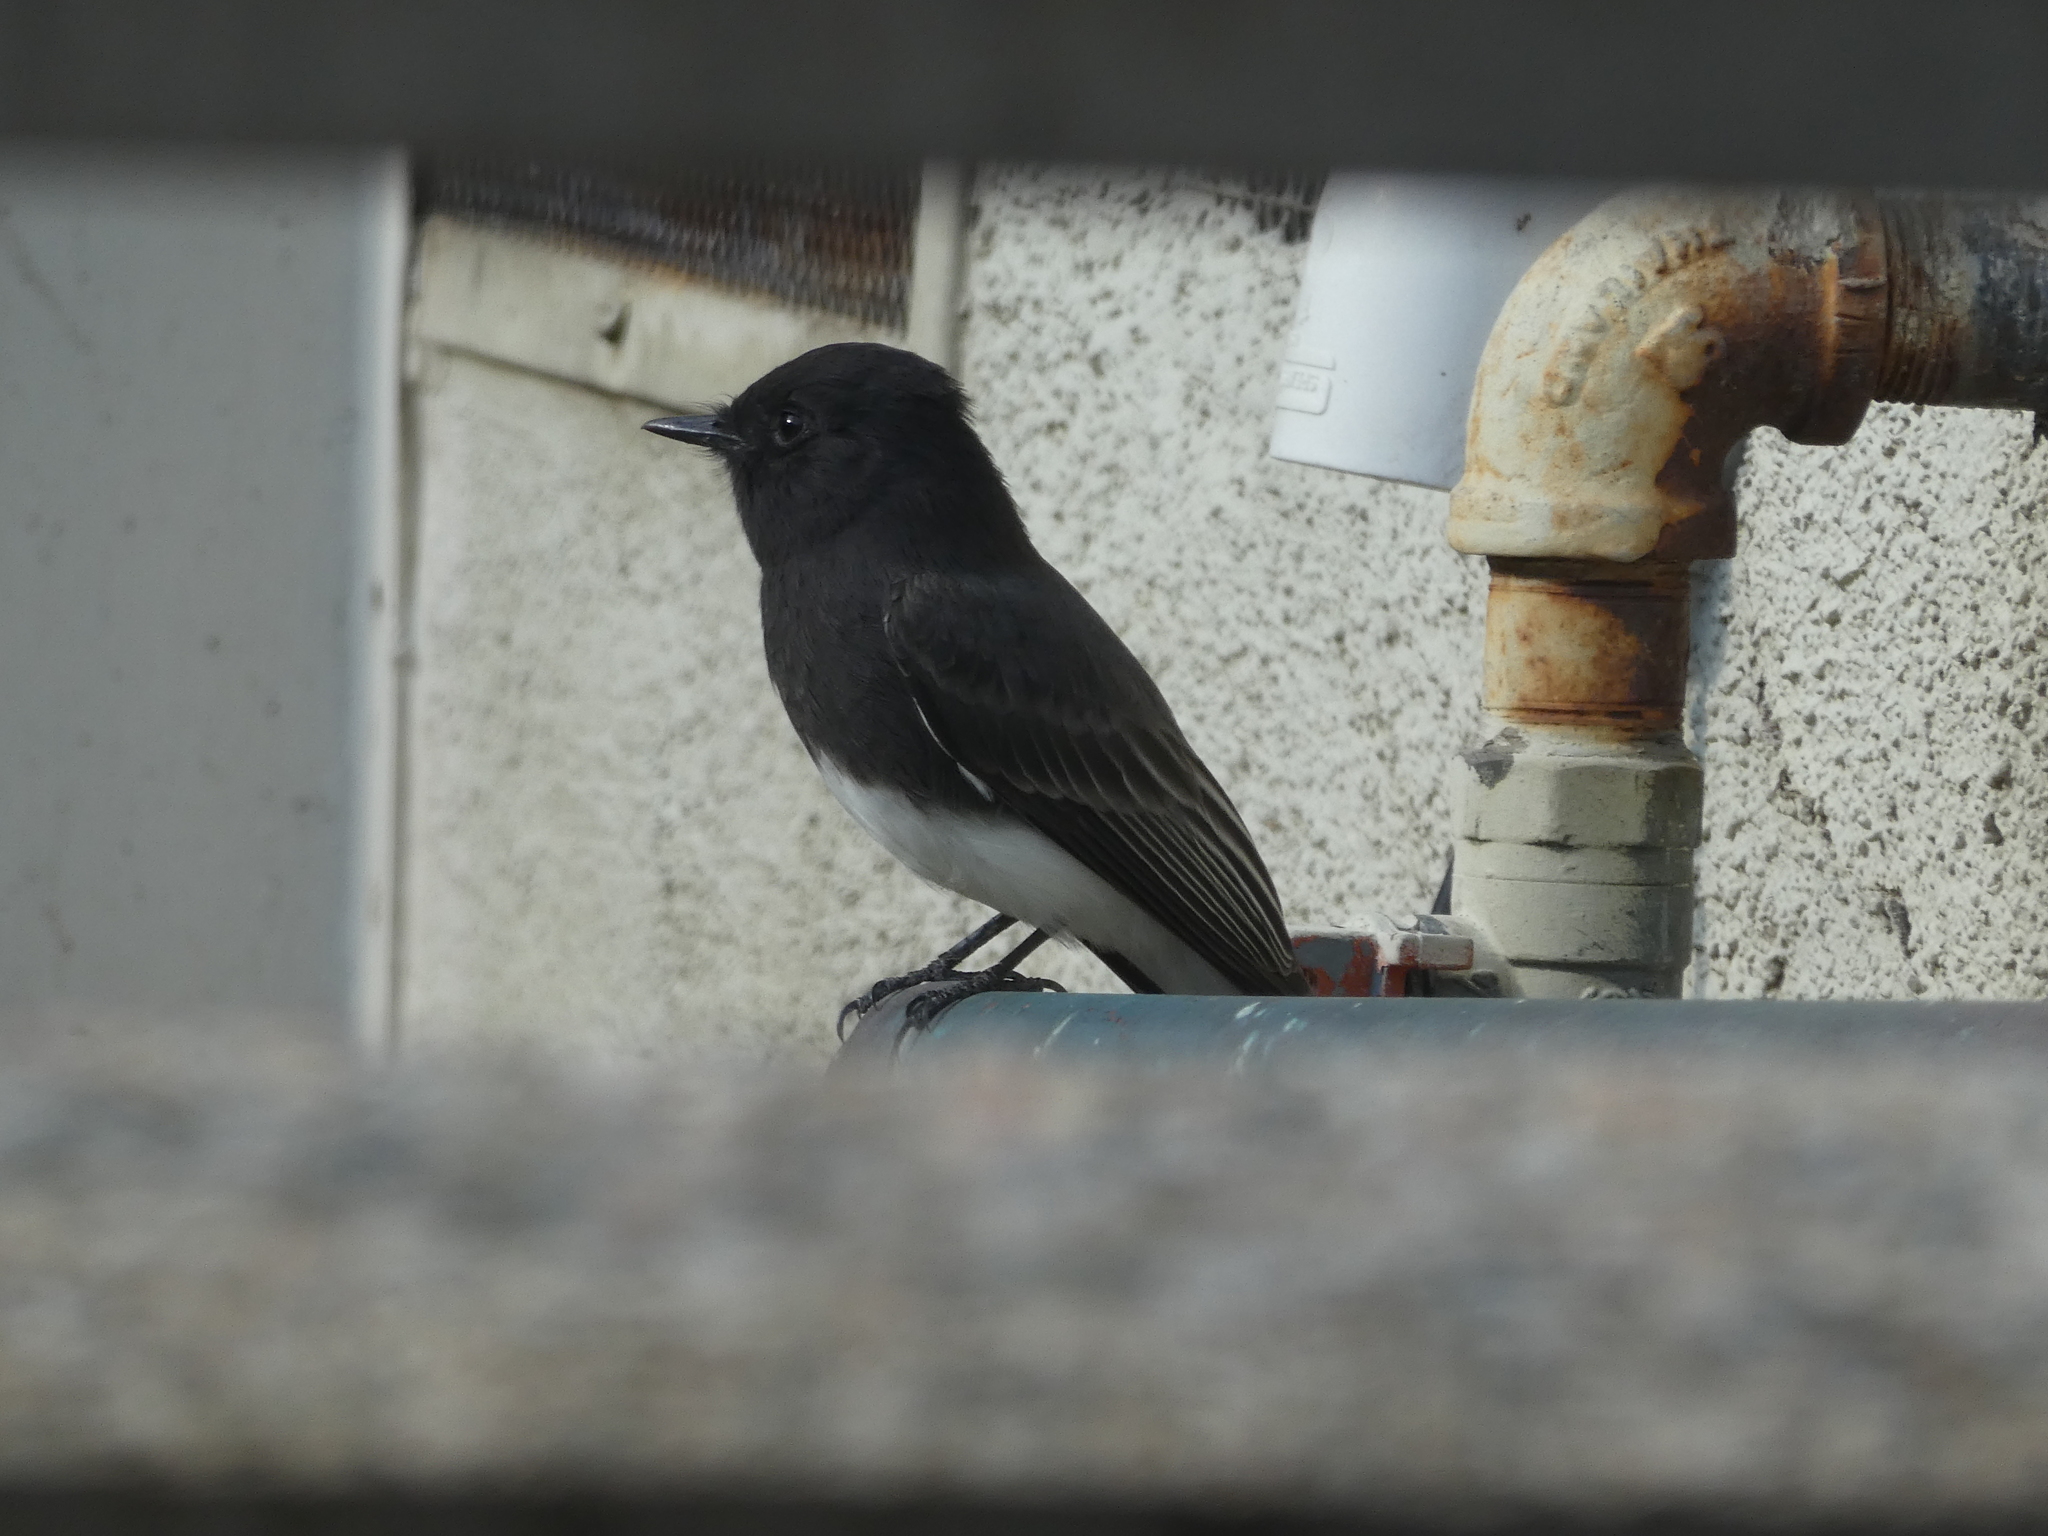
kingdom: Animalia
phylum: Chordata
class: Aves
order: Passeriformes
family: Tyrannidae
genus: Sayornis
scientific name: Sayornis nigricans
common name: Black phoebe
